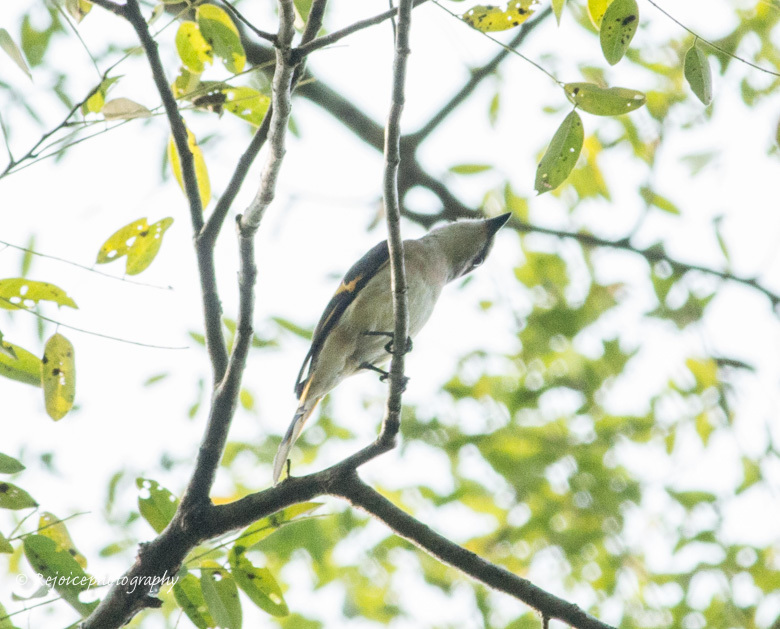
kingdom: Animalia
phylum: Chordata
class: Aves
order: Passeriformes
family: Campephagidae
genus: Pericrocotus
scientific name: Pericrocotus roseus
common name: Rosy minivet
